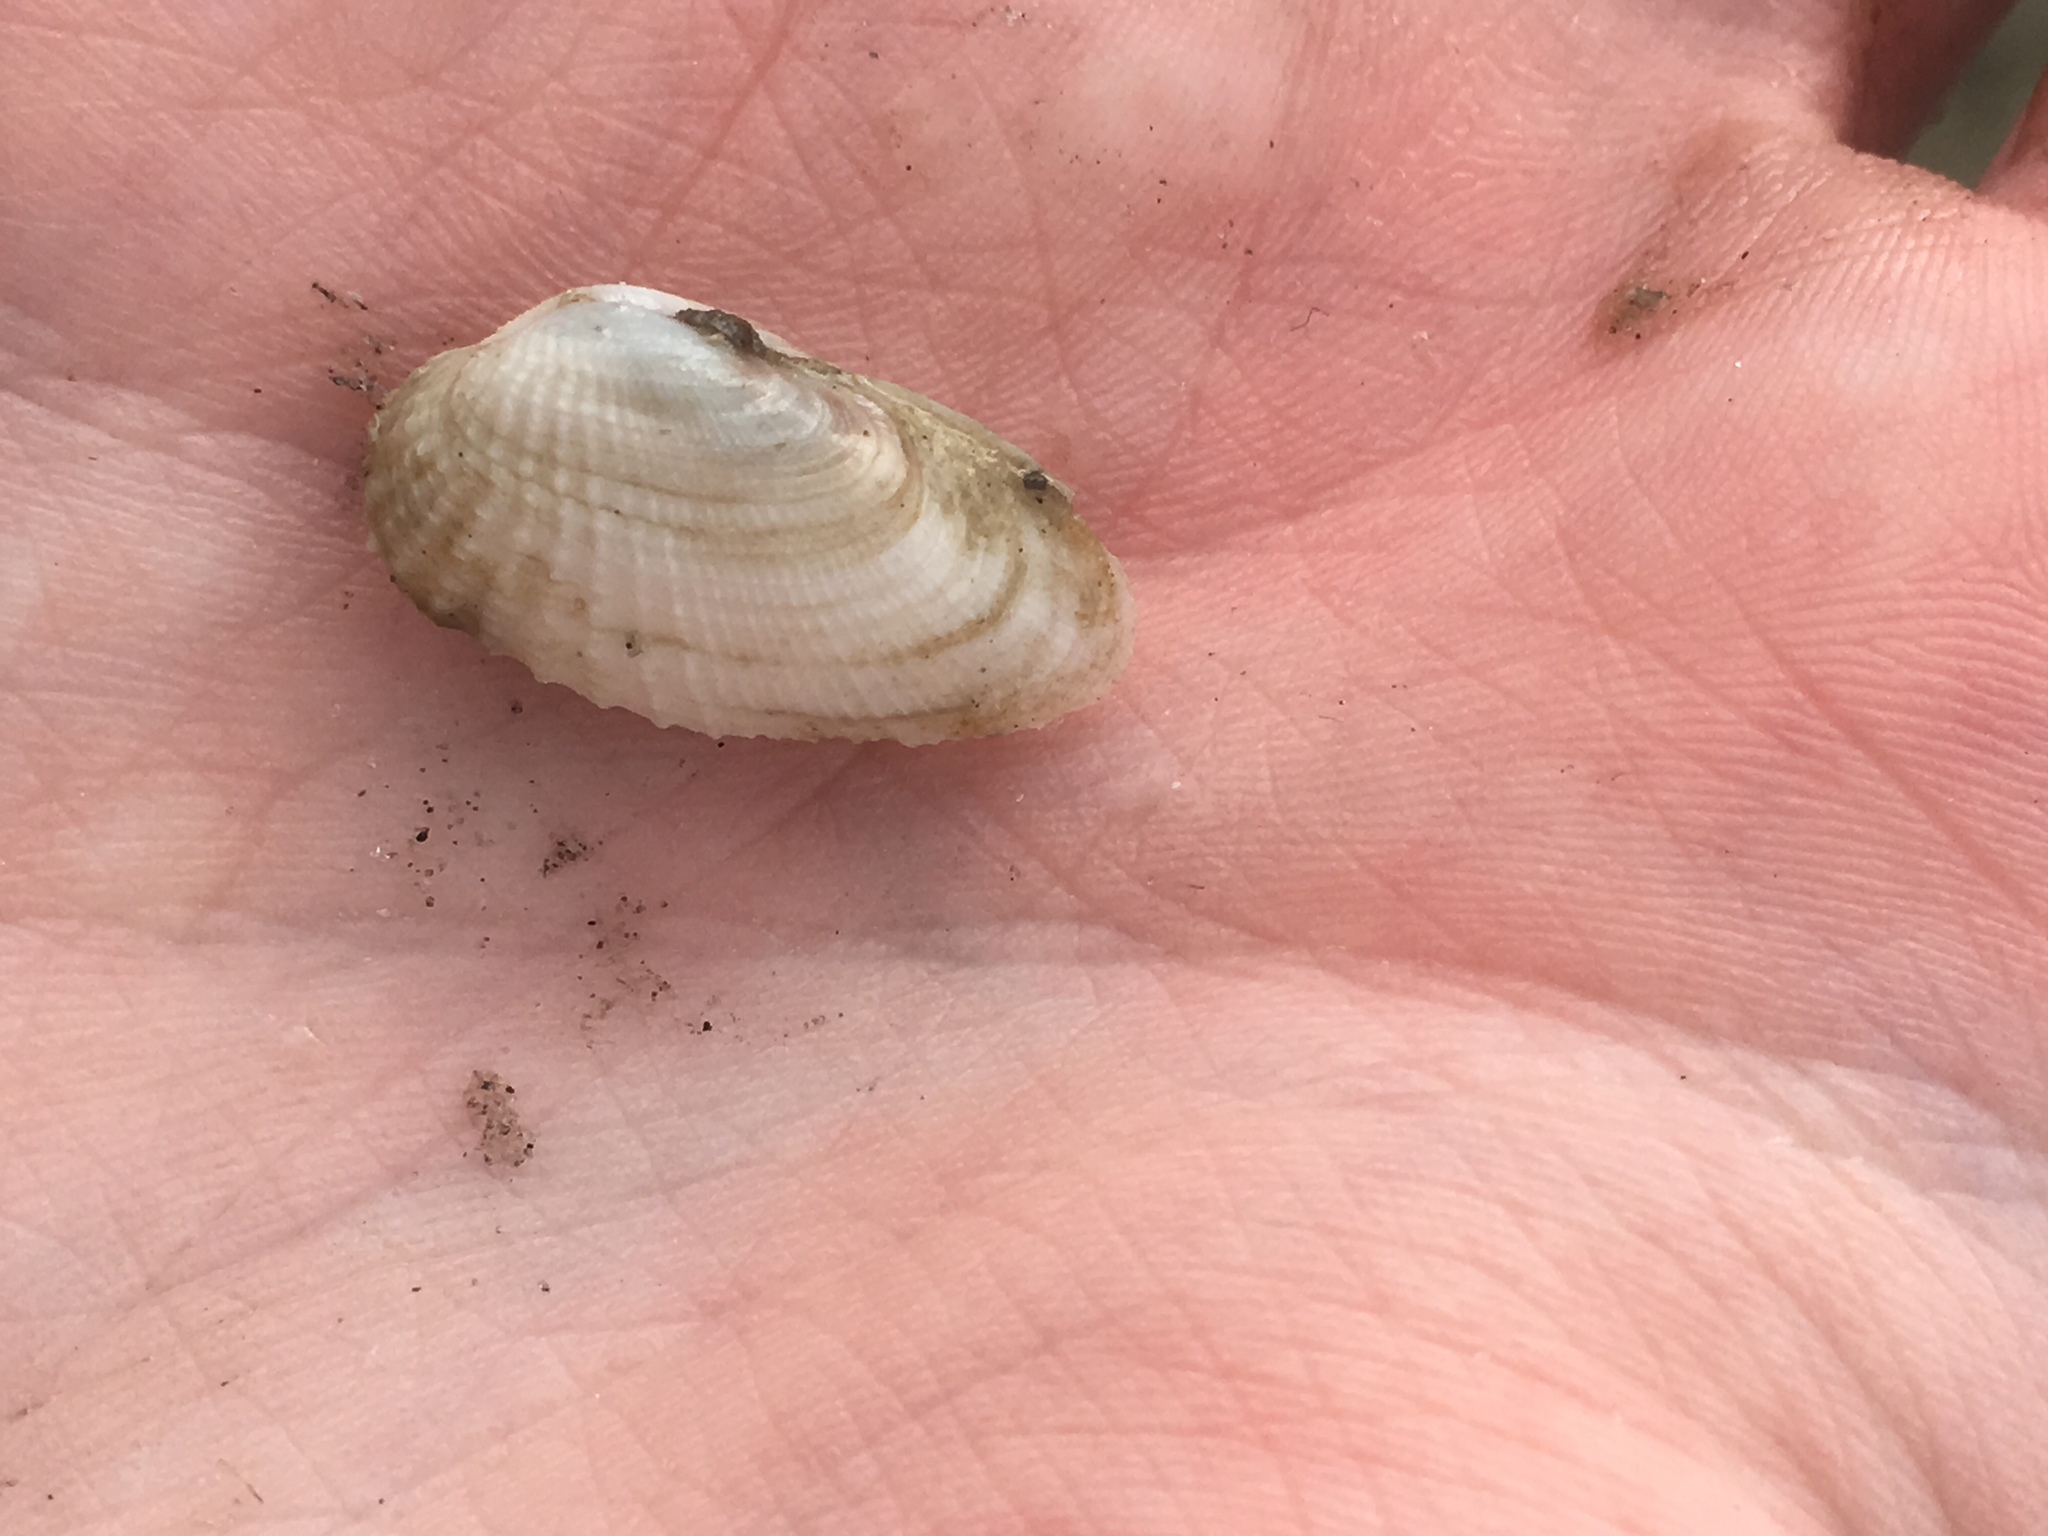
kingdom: Animalia
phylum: Mollusca
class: Bivalvia
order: Venerida
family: Veneridae
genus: Petricolaria
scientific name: Petricolaria pholadiformis
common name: American piddock
